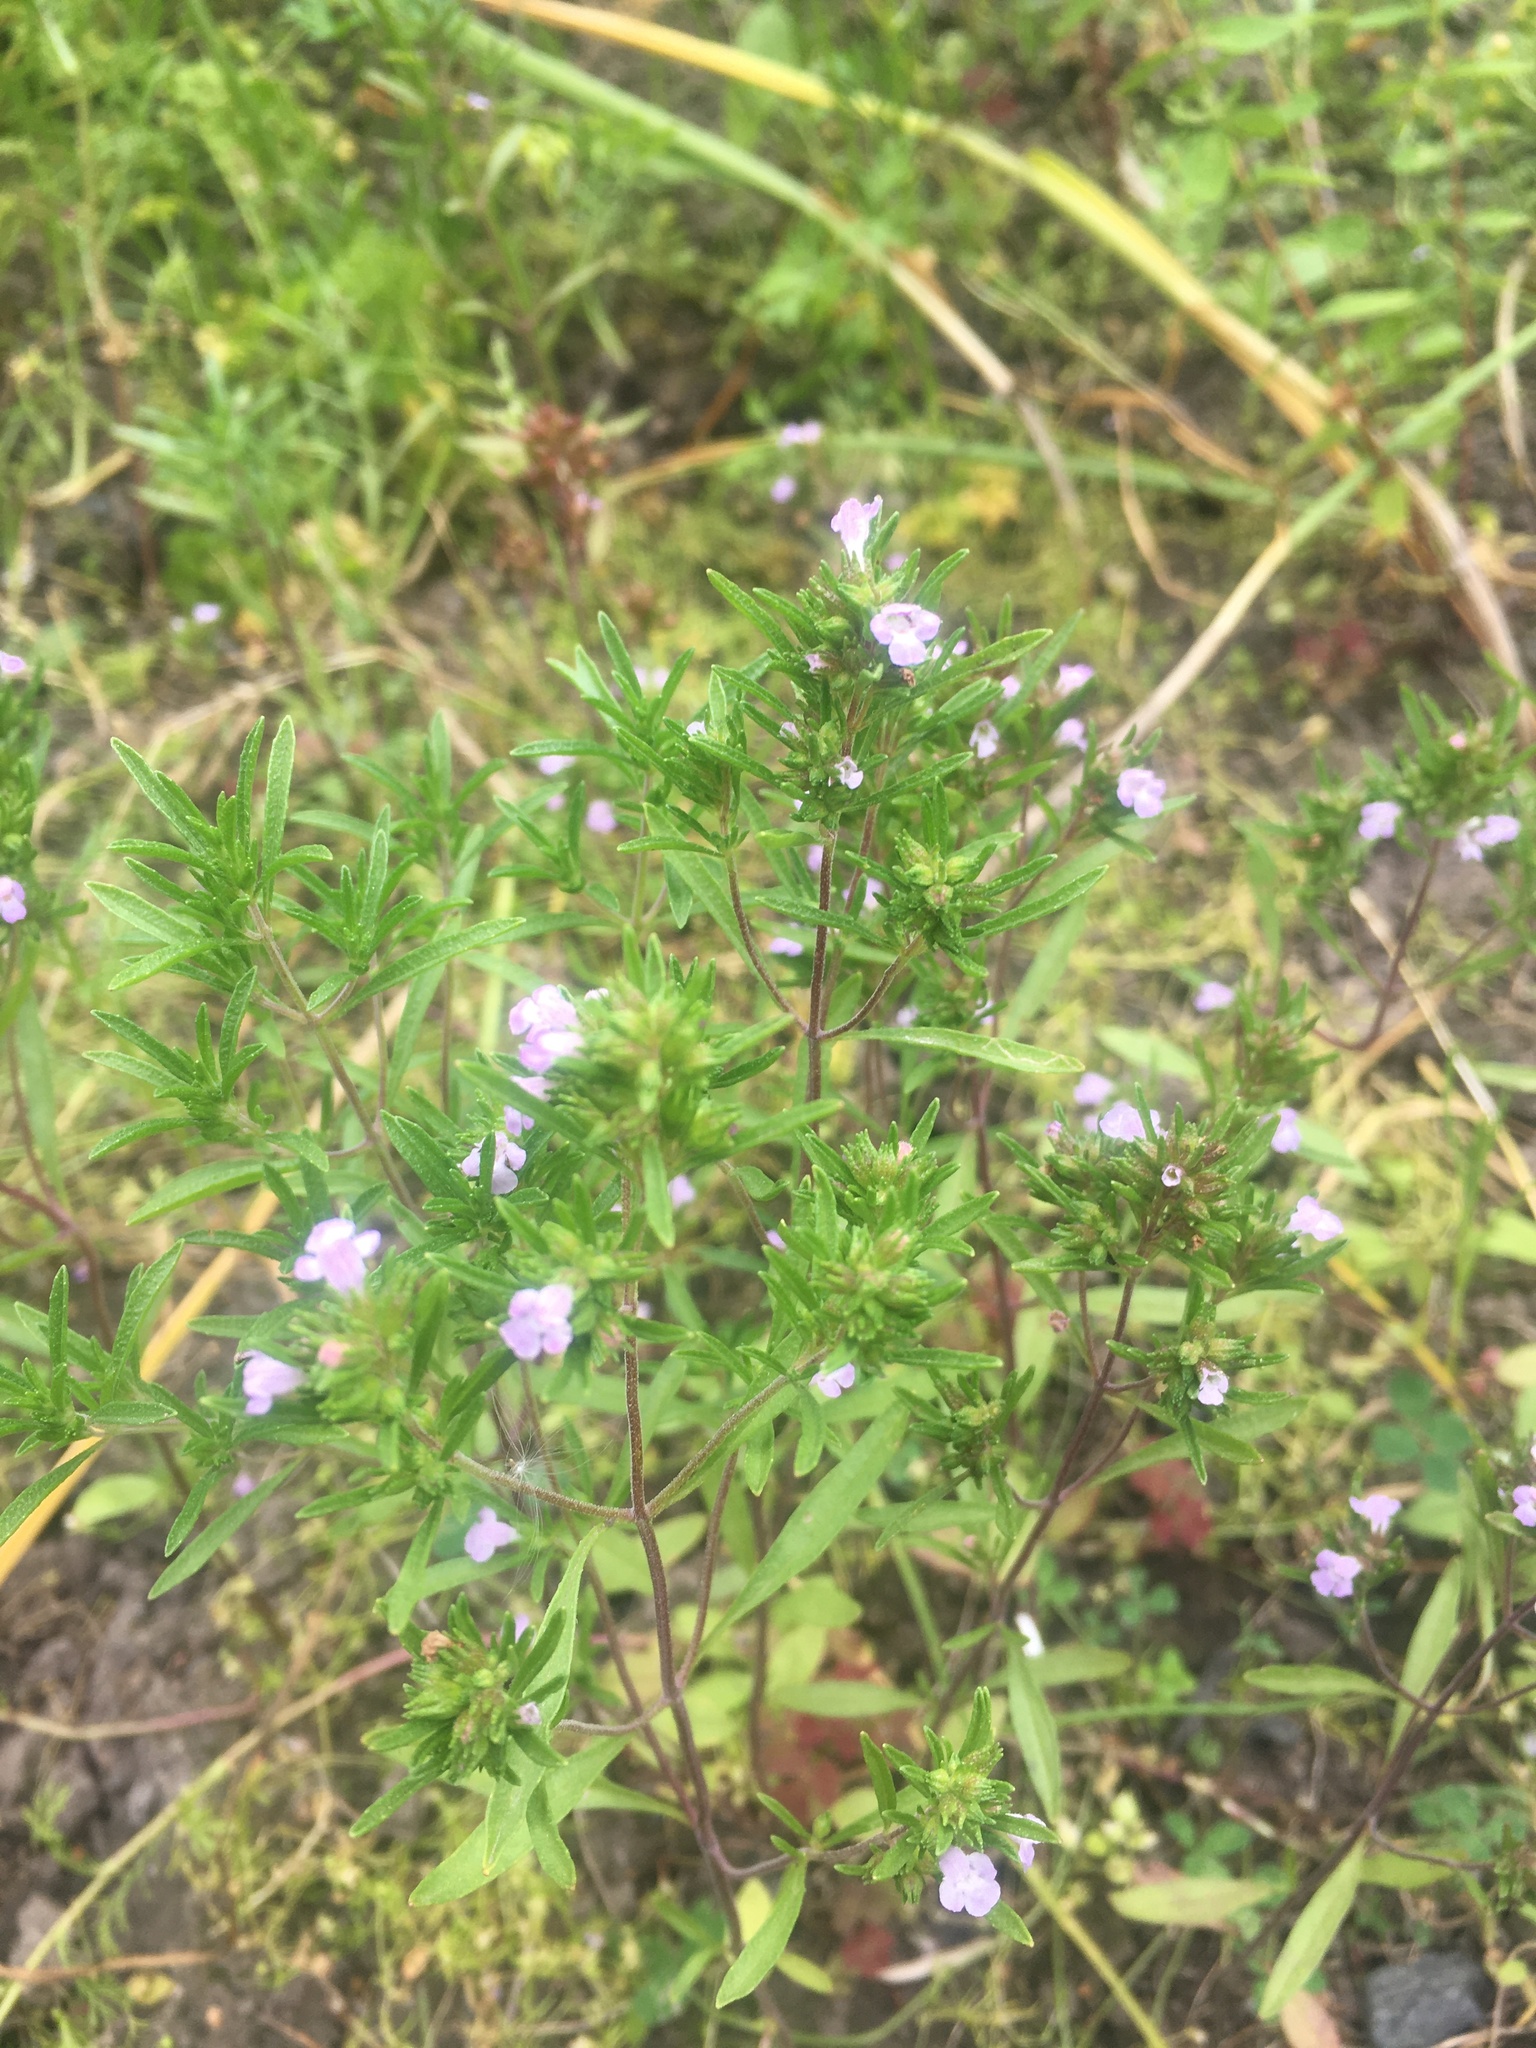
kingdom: Plantae
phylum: Tracheophyta
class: Magnoliopsida
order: Lamiales
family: Lamiaceae
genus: Satureja
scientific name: Satureja hortensis
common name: Summer savory
